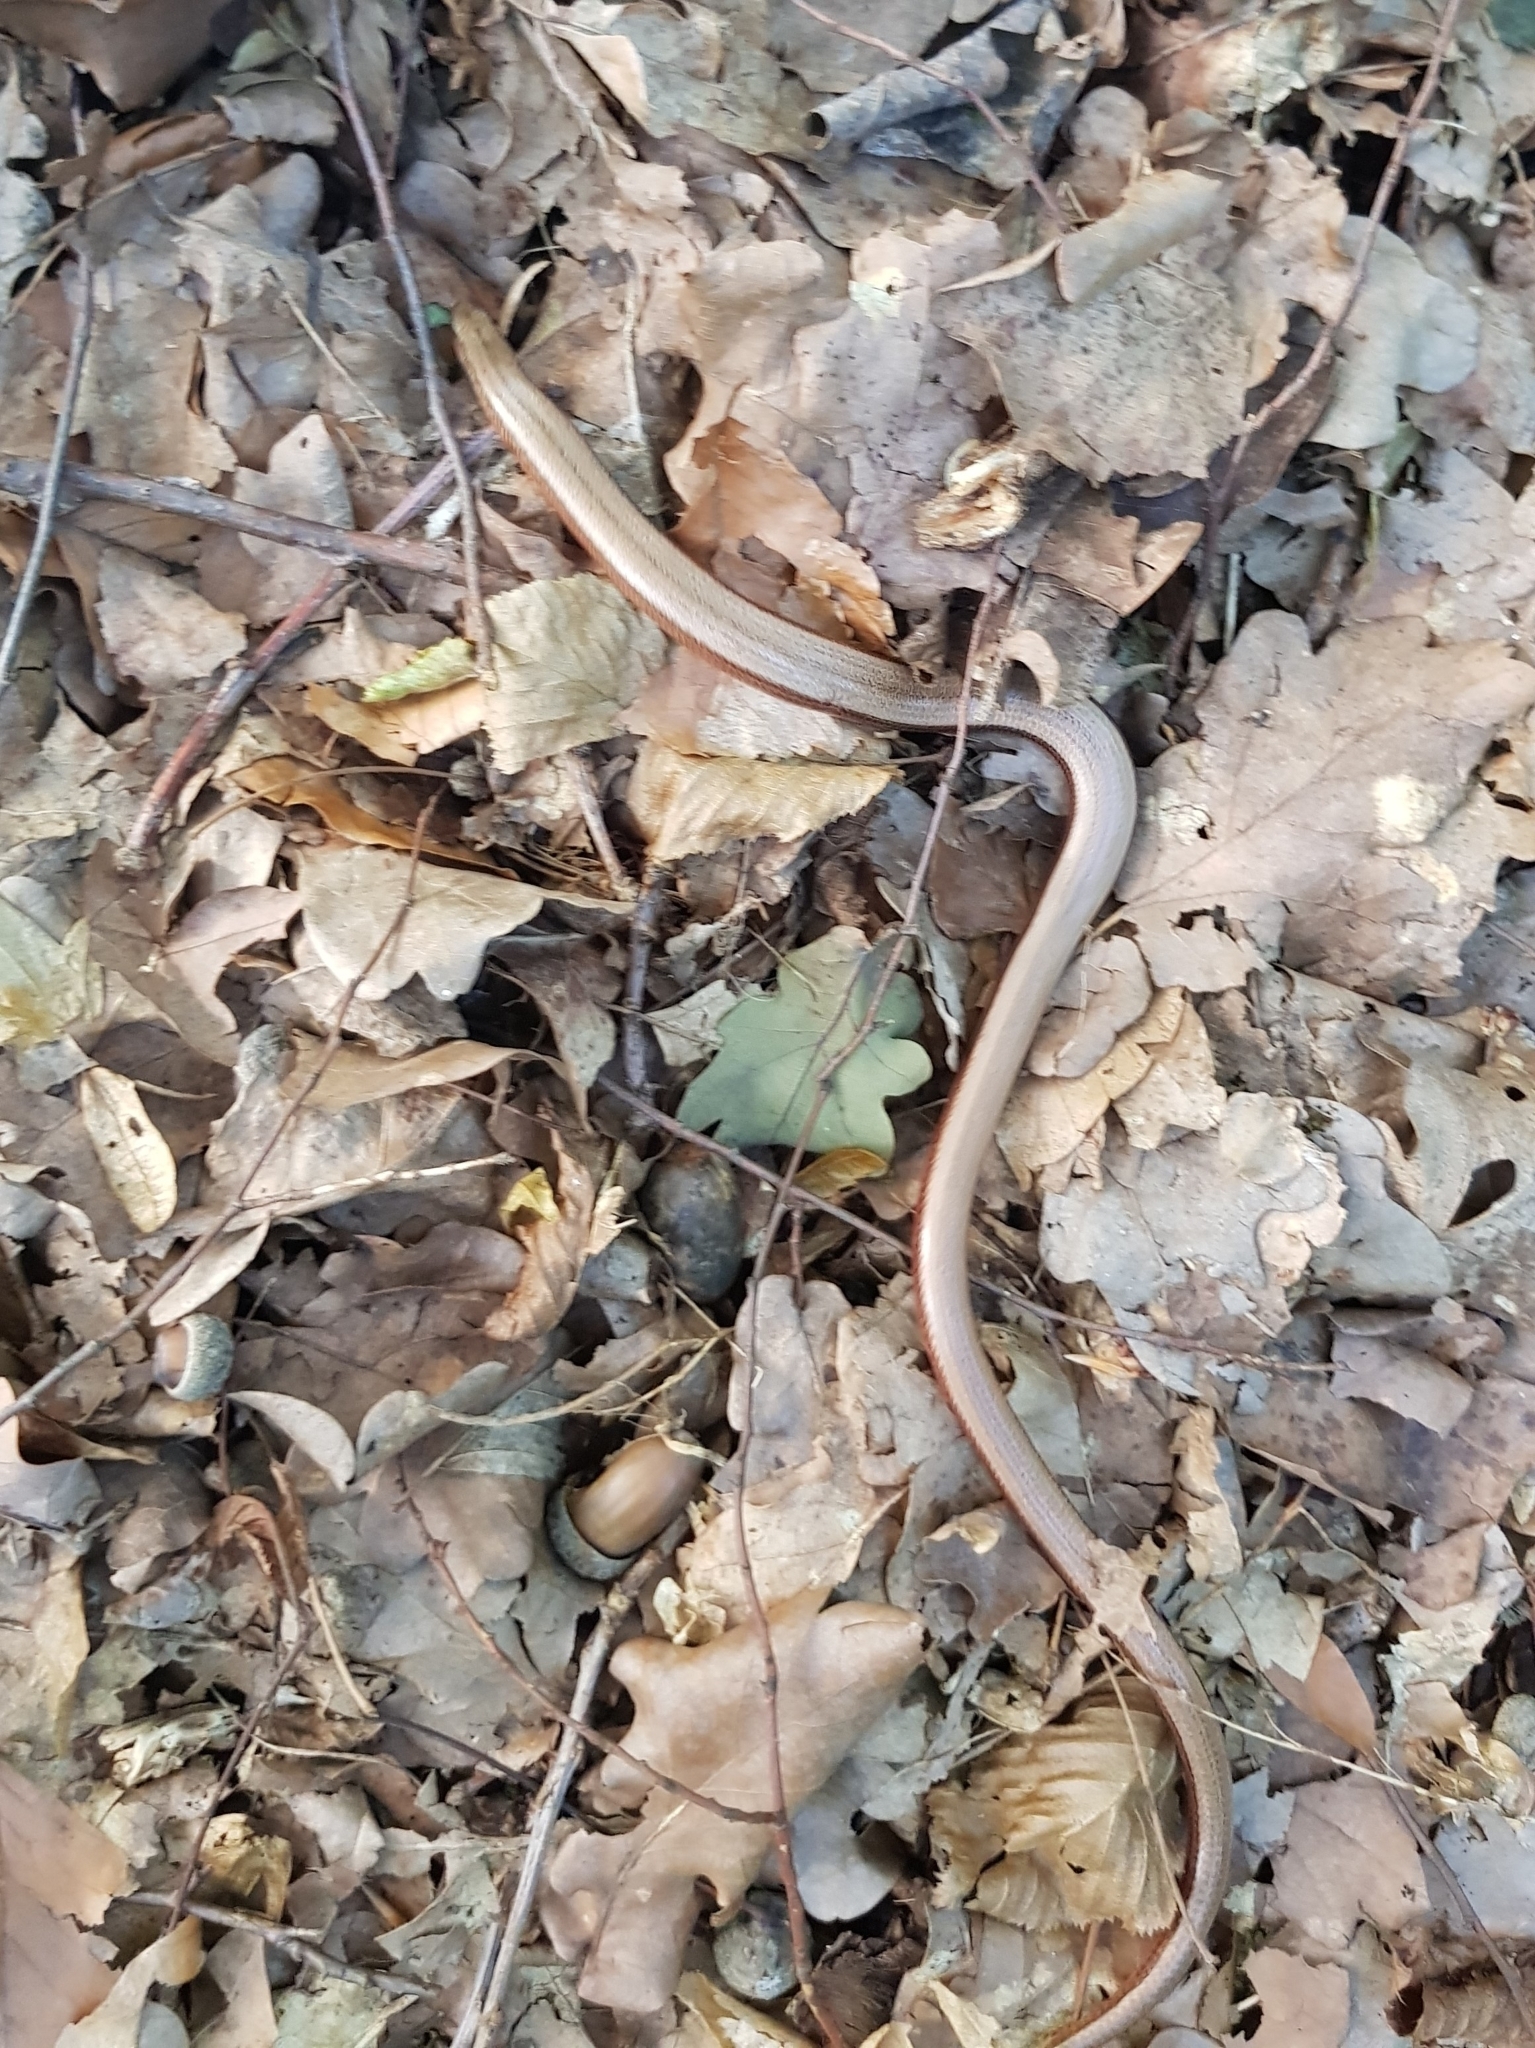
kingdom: Animalia
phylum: Chordata
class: Squamata
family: Anguidae
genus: Anguis
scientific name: Anguis fragilis
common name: Slow worm
